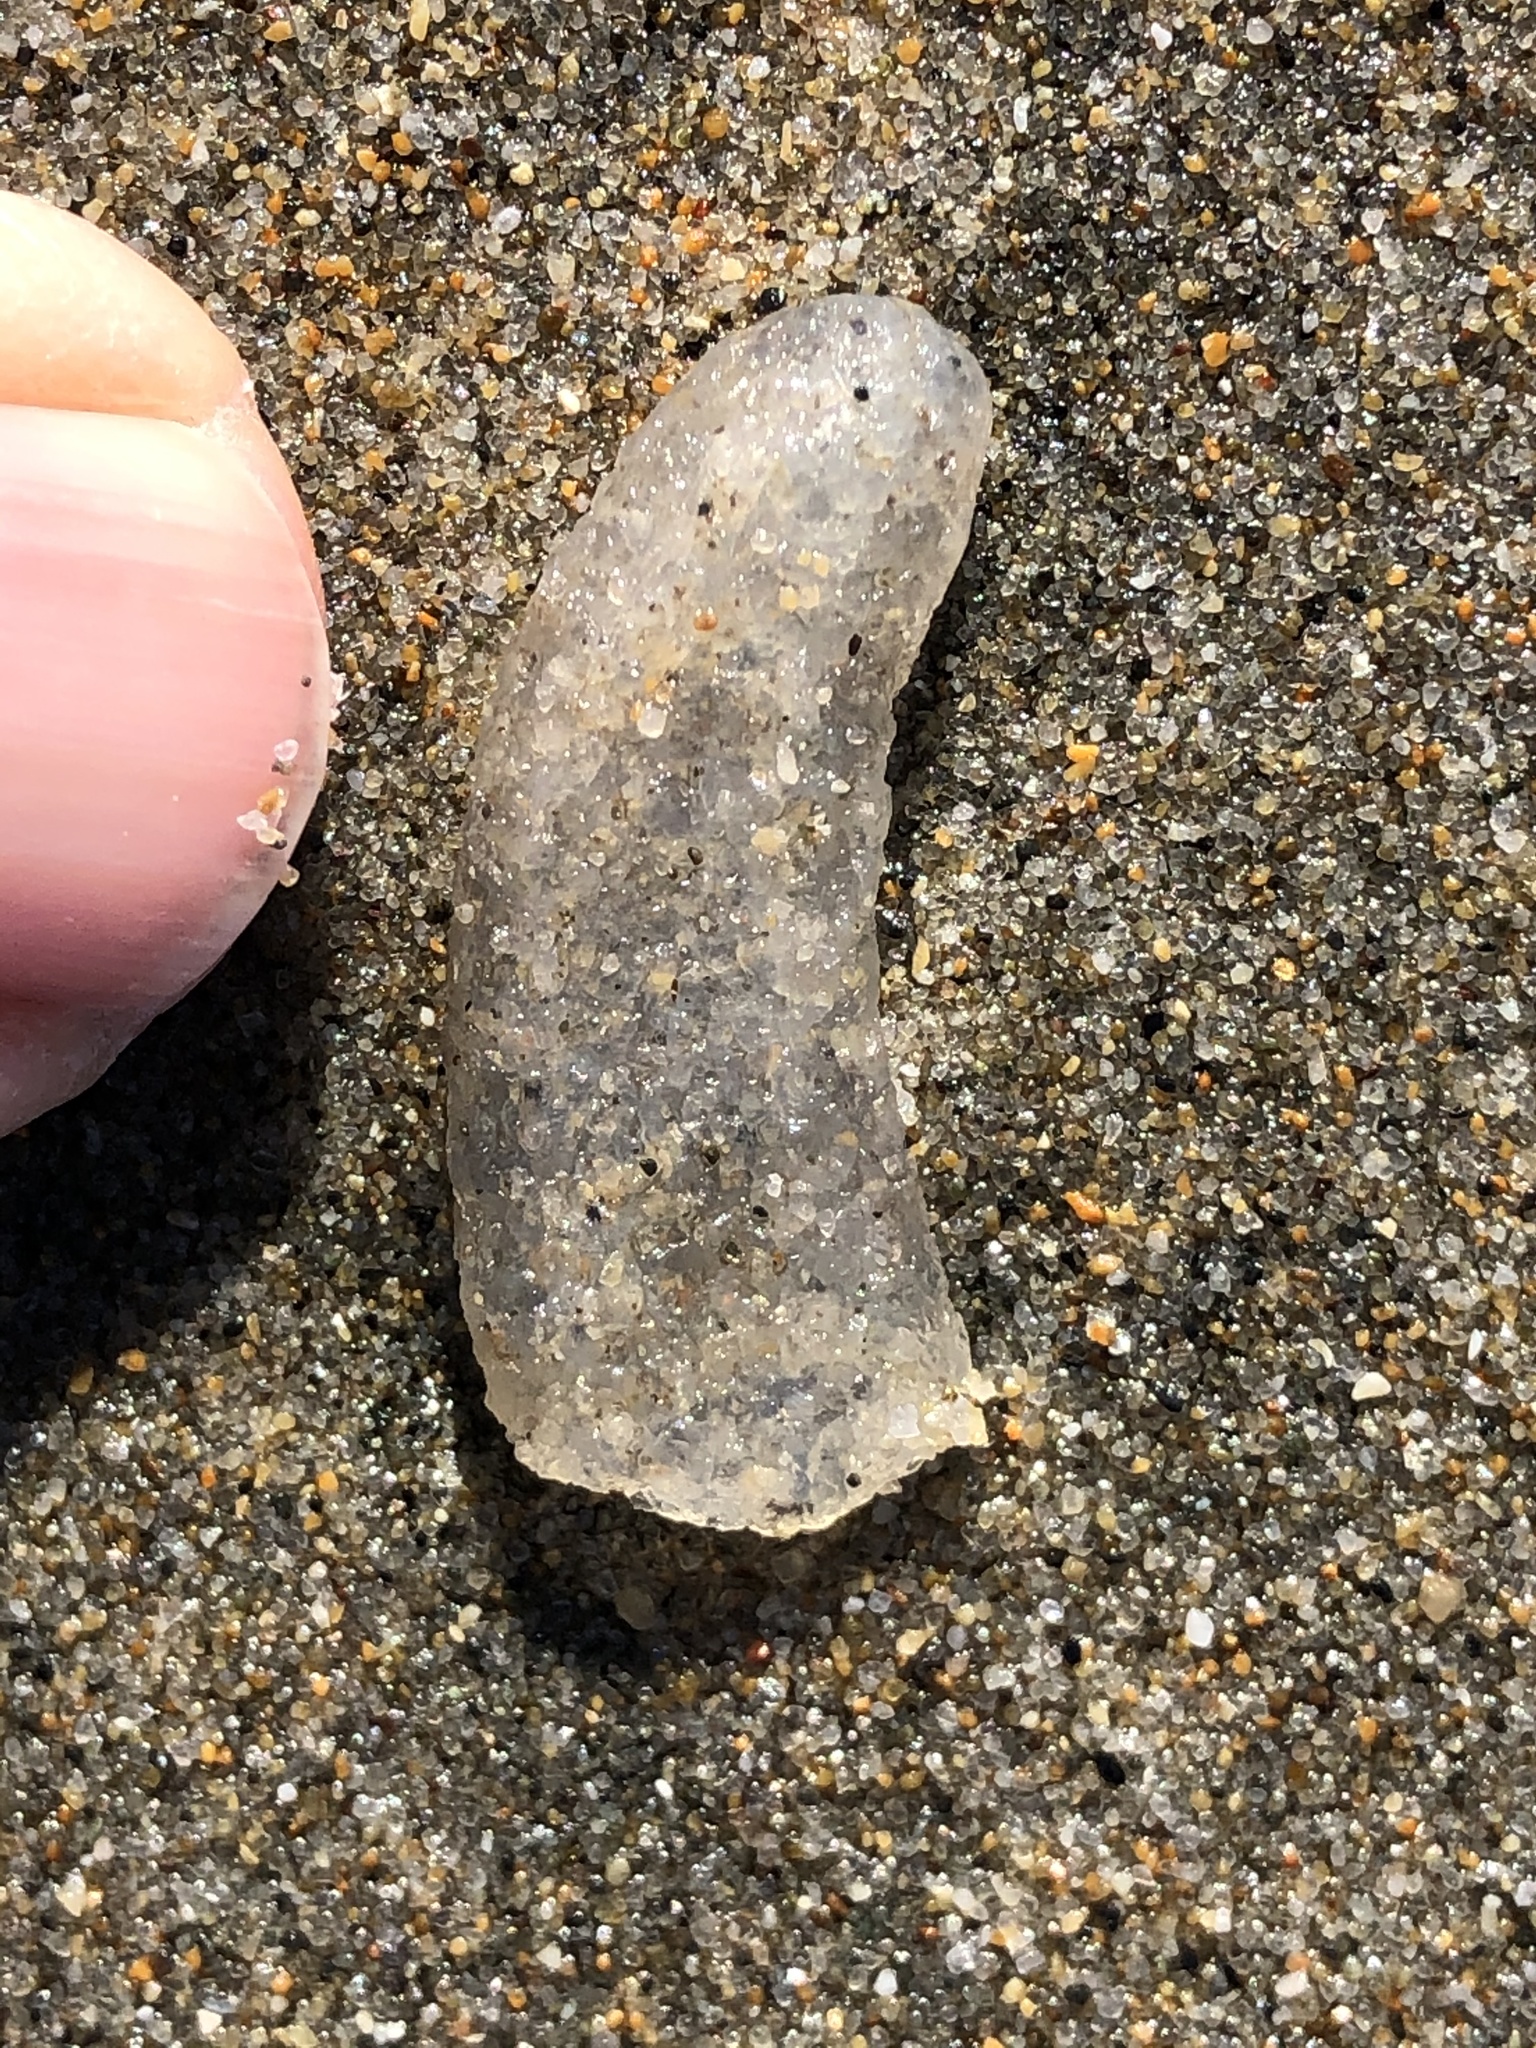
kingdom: Animalia
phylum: Chordata
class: Thaliacea
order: Pyrosomatida
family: Pyrosomatidae
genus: Pyrosoma
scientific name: Pyrosoma atlanticum
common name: Atlantic pyrosomes
